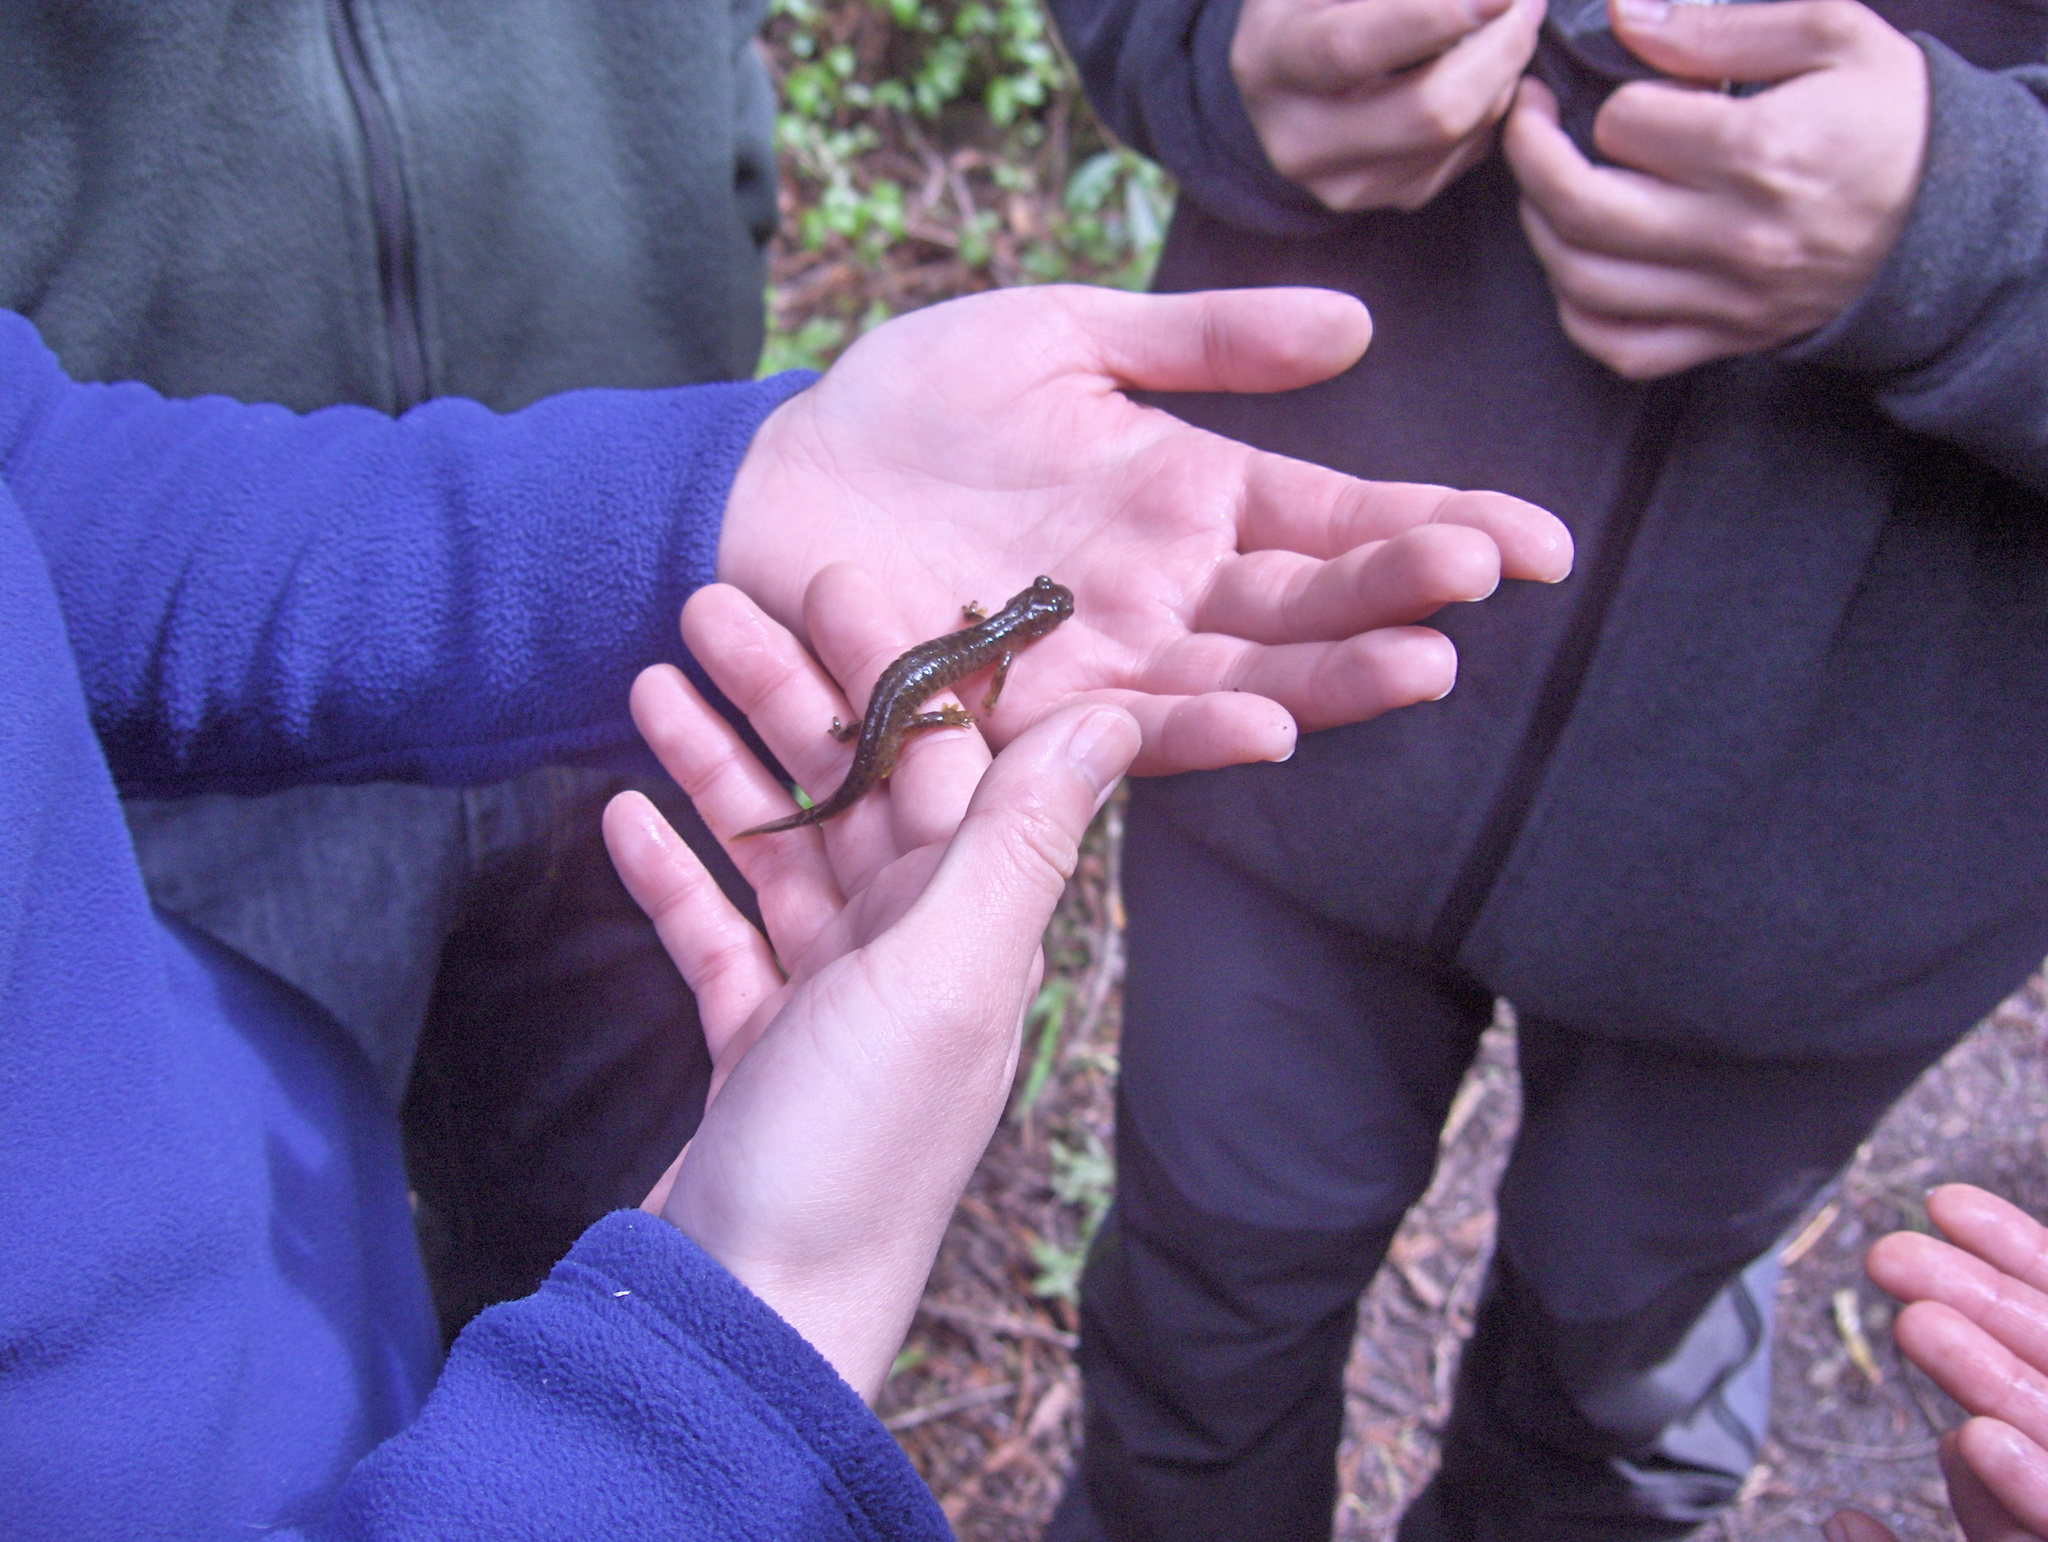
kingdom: Animalia
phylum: Chordata
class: Amphibia
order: Caudata
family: Rhyacotritonidae
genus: Rhyacotriton
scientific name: Rhyacotriton variegatus
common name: Southern torrent salamander
